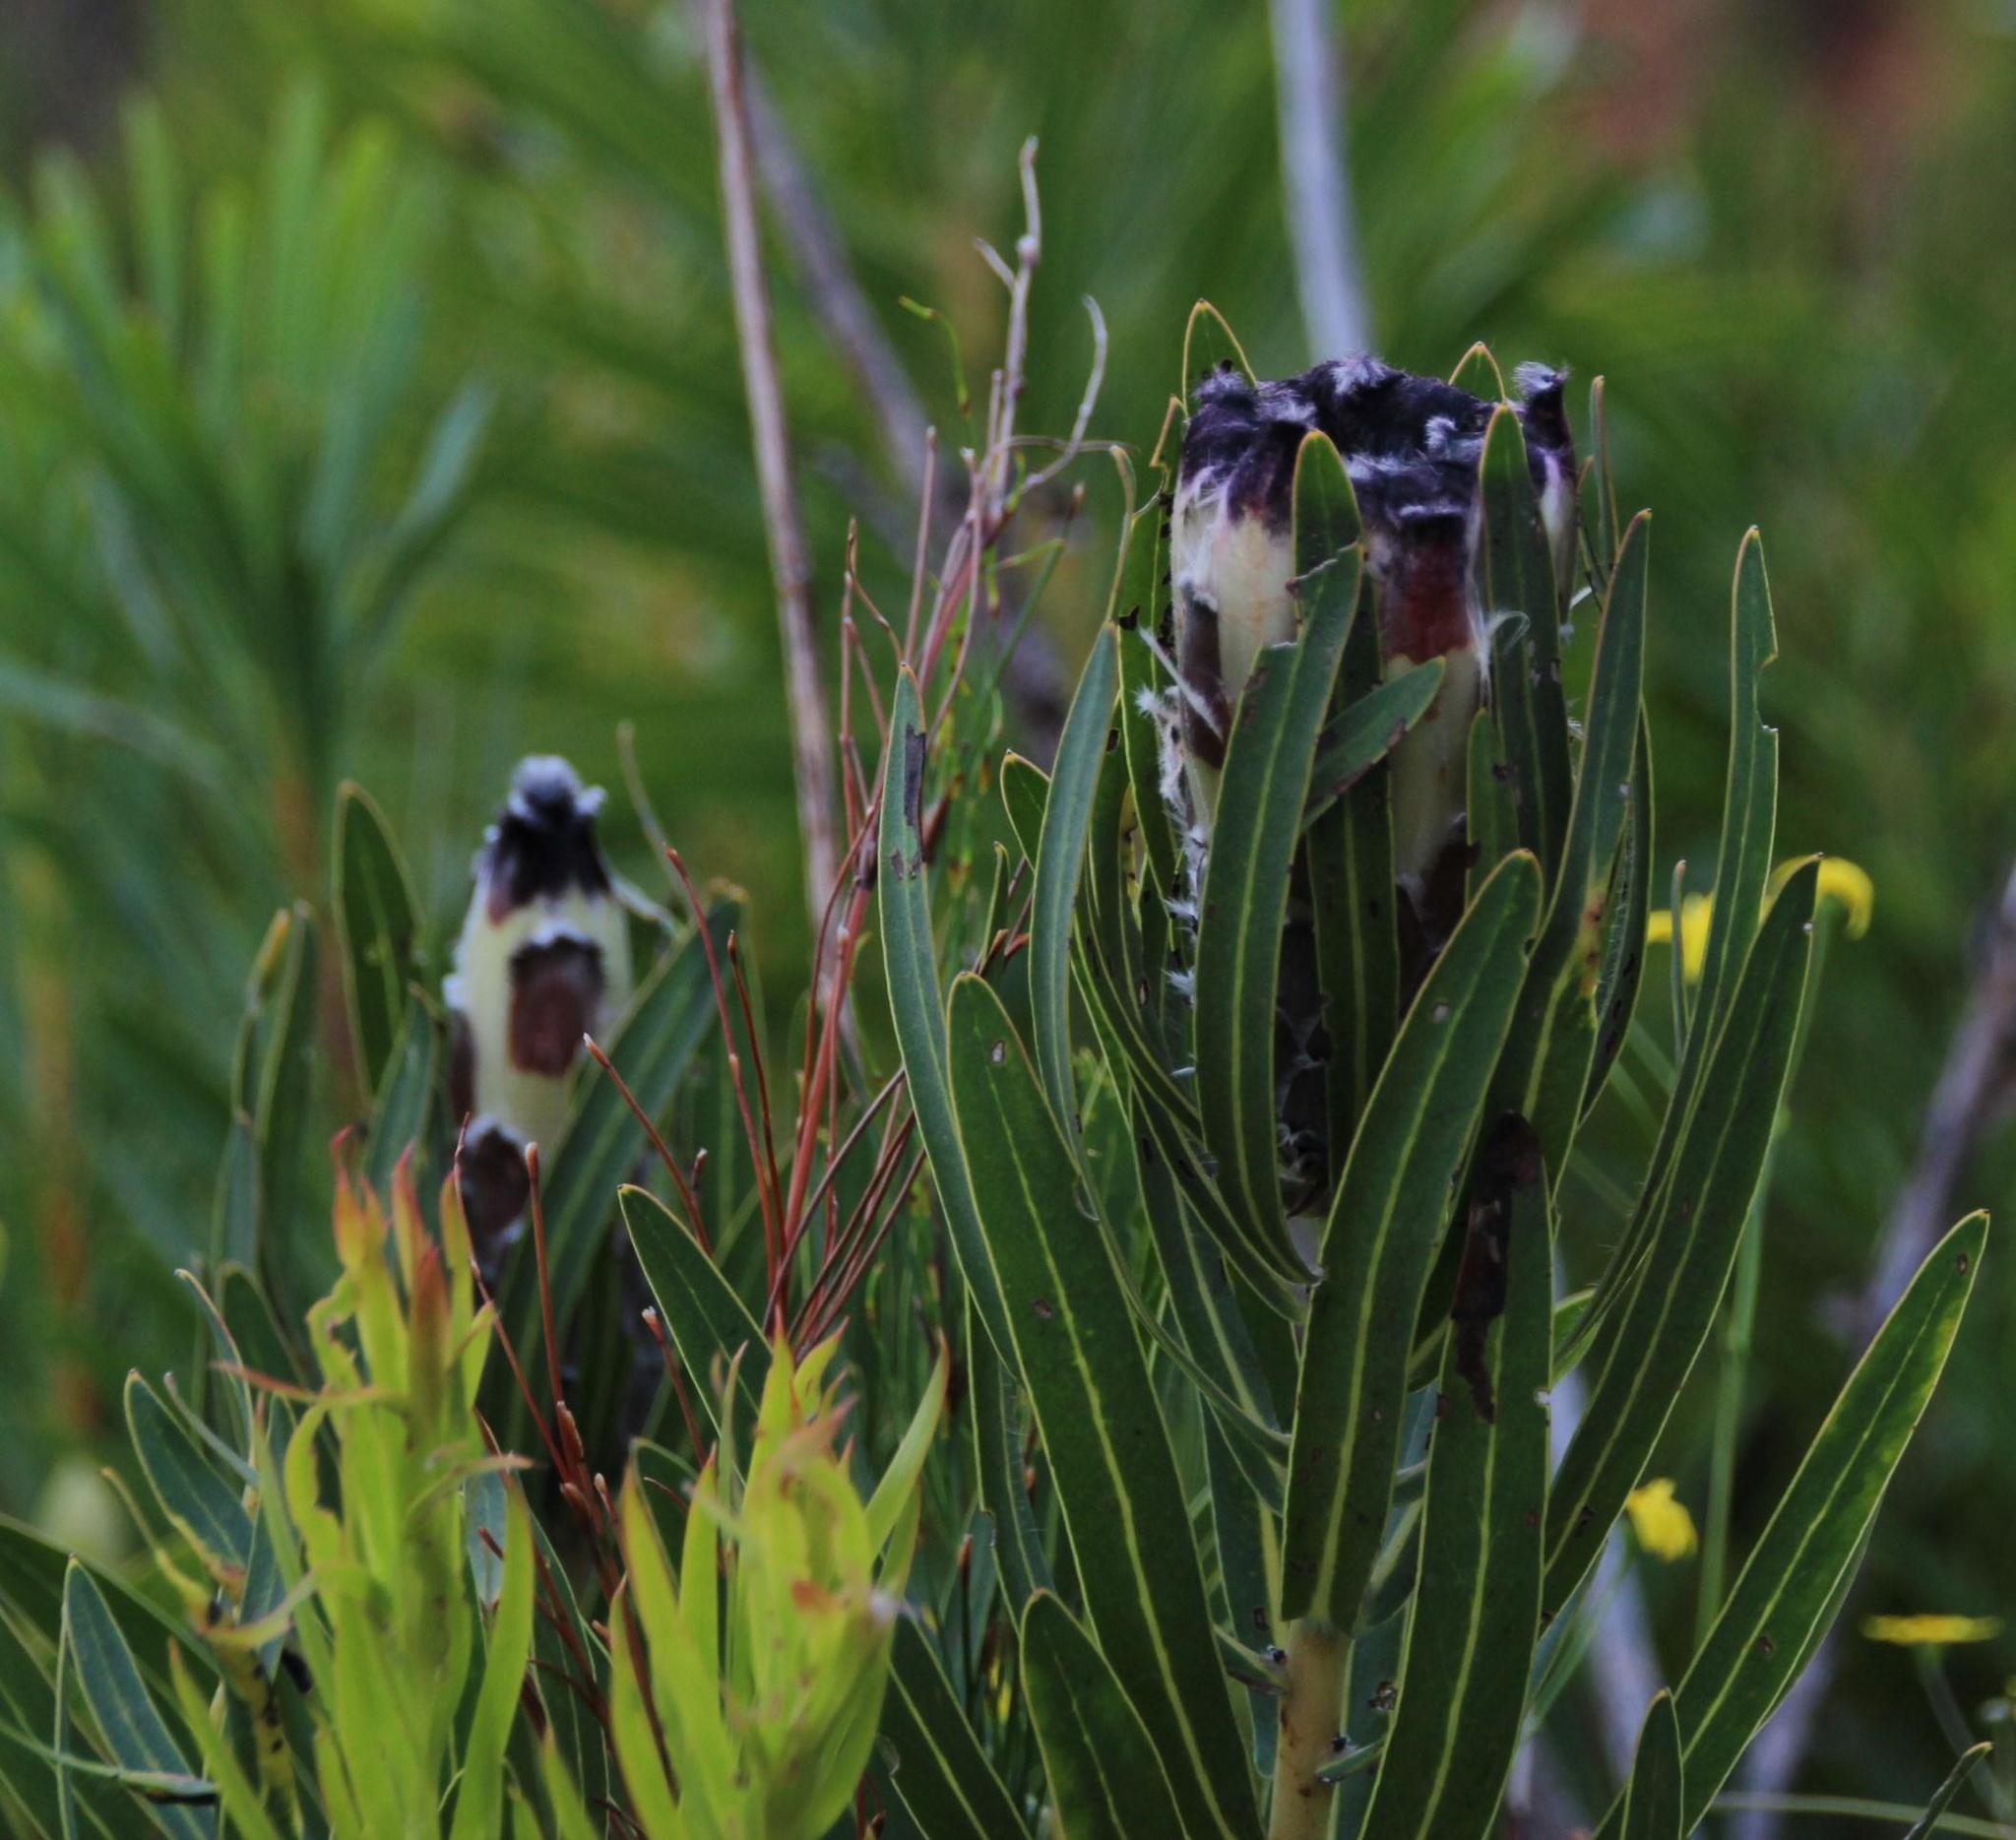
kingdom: Plantae
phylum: Tracheophyta
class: Magnoliopsida
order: Proteales
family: Proteaceae
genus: Protea
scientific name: Protea lepidocarpodendron
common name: Black-bearded protea
